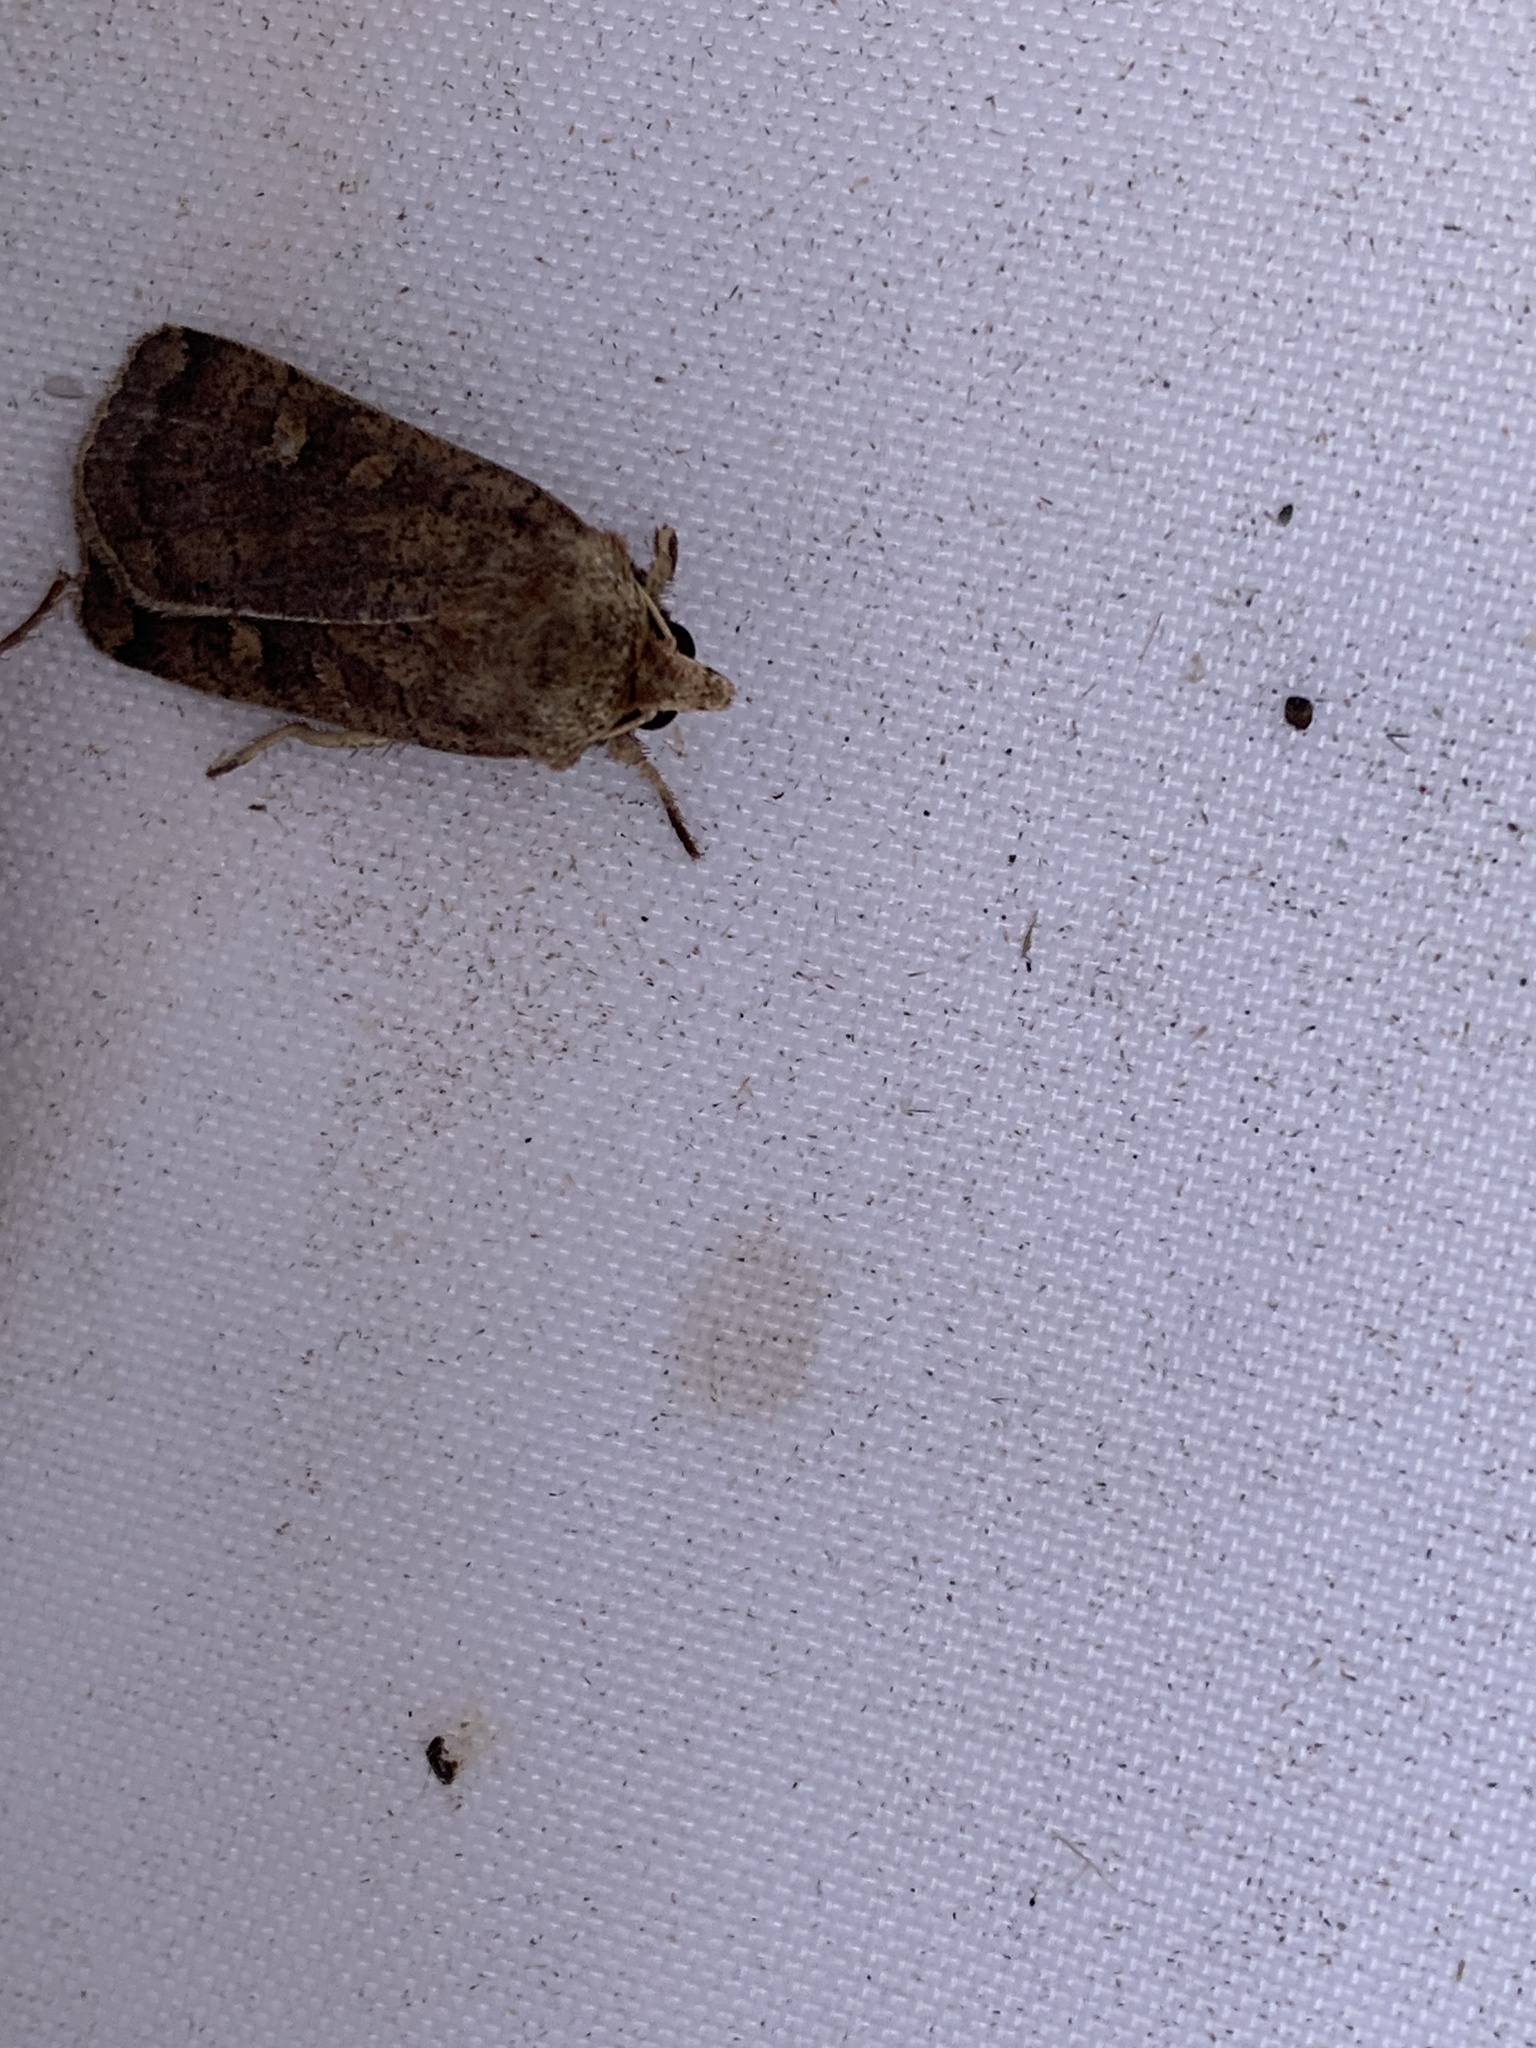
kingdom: Animalia
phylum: Arthropoda
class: Insecta
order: Lepidoptera
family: Noctuidae
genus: Xestia
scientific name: Xestia xanthographa
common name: Square-spot rustic
